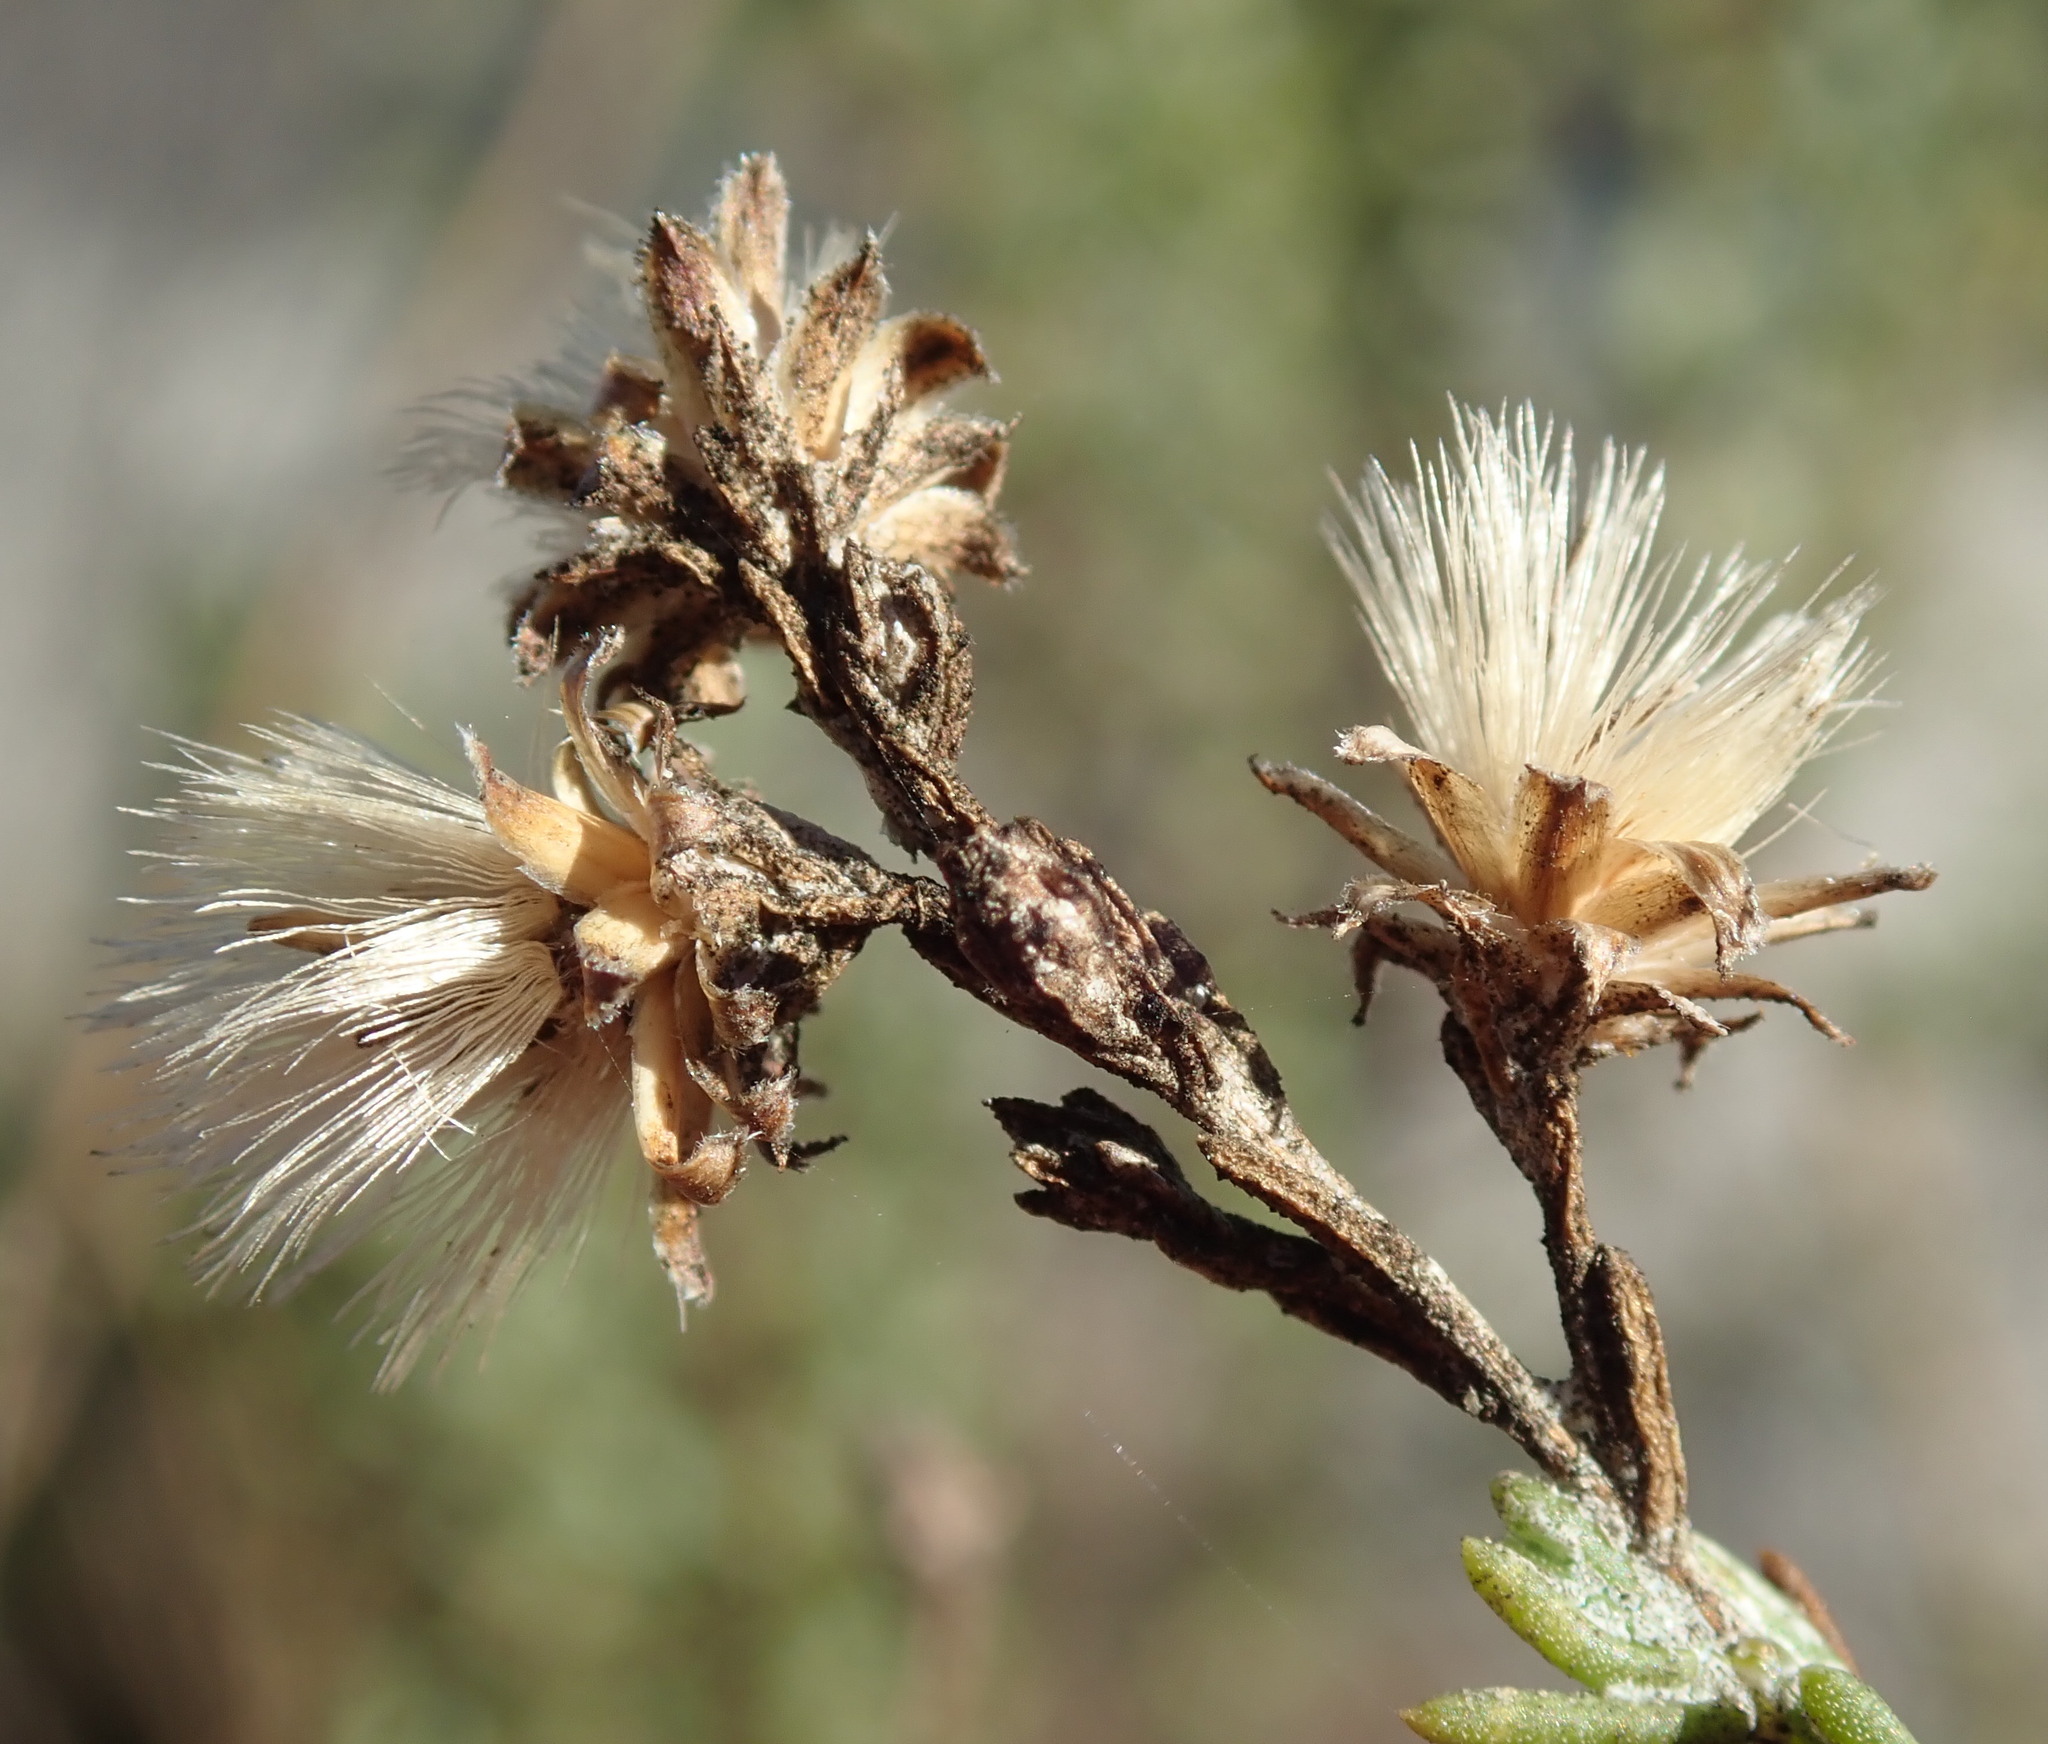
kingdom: Plantae
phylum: Tracheophyta
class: Magnoliopsida
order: Asterales
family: Asteraceae
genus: Ericameria
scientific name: Ericameria ericoides
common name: California goldenbush
